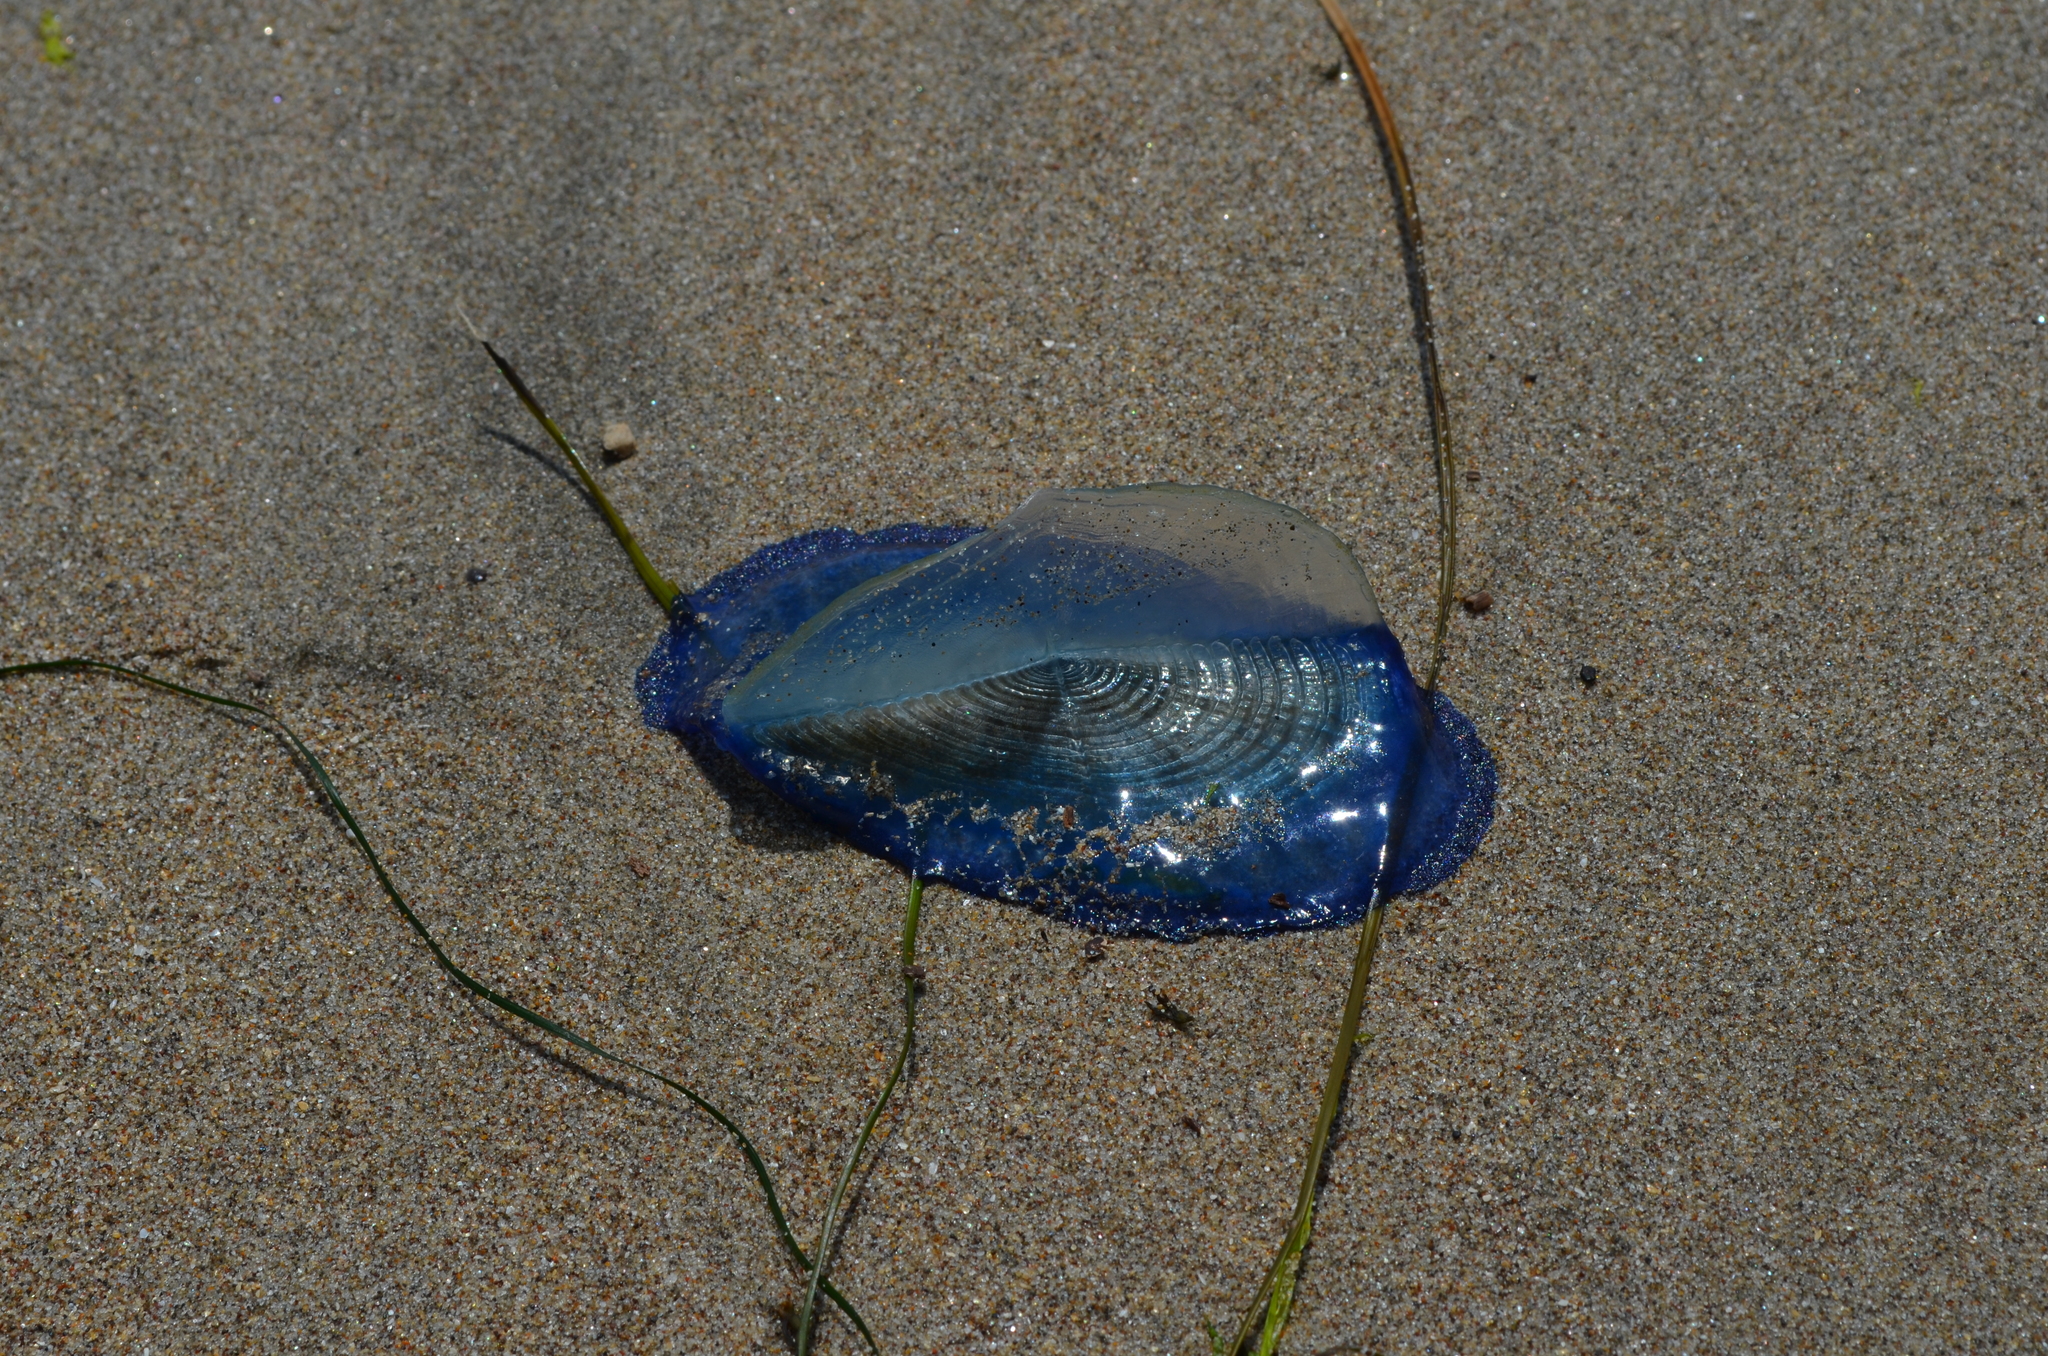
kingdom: Animalia
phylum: Cnidaria
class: Hydrozoa
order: Anthoathecata
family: Porpitidae
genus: Velella
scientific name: Velella velella
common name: By-the-wind-sailor
